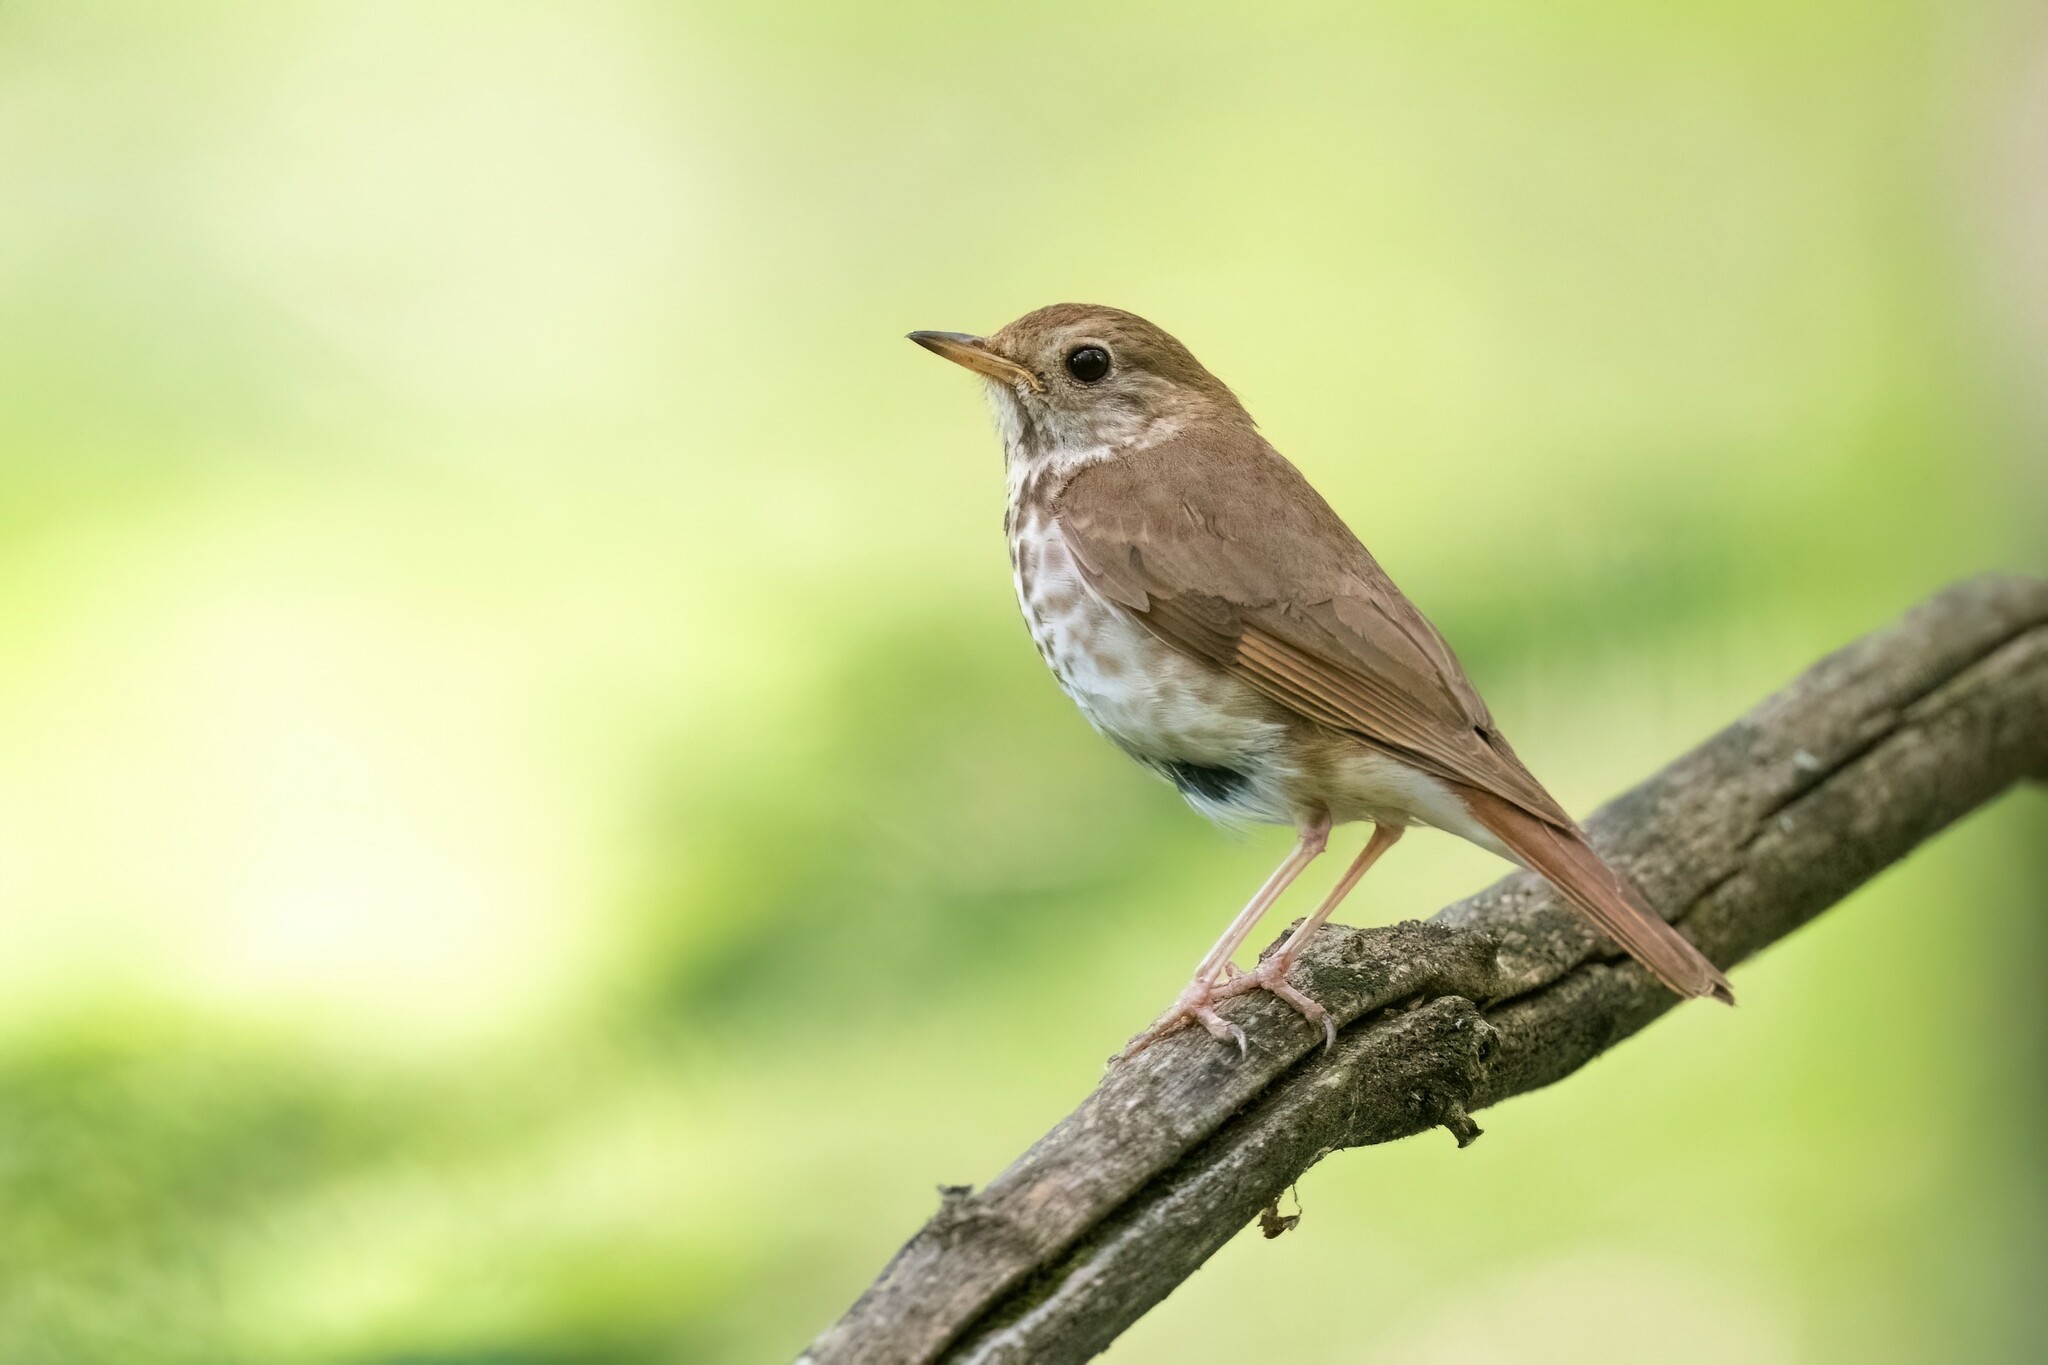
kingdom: Animalia
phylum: Chordata
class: Aves
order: Passeriformes
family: Turdidae
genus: Catharus
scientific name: Catharus guttatus
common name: Hermit thrush
